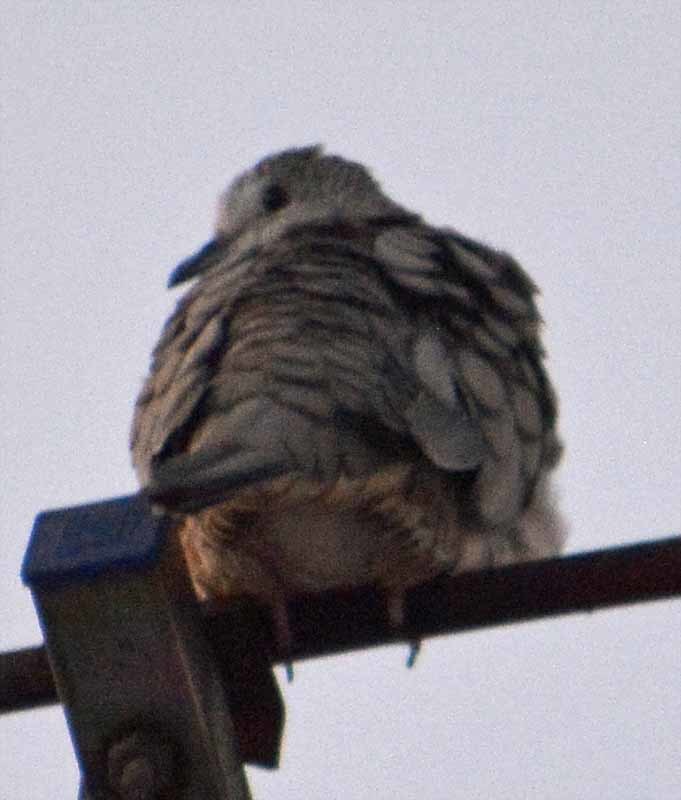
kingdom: Animalia
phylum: Chordata
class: Aves
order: Columbiformes
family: Columbidae
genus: Columbina
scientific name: Columbina inca
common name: Inca dove
